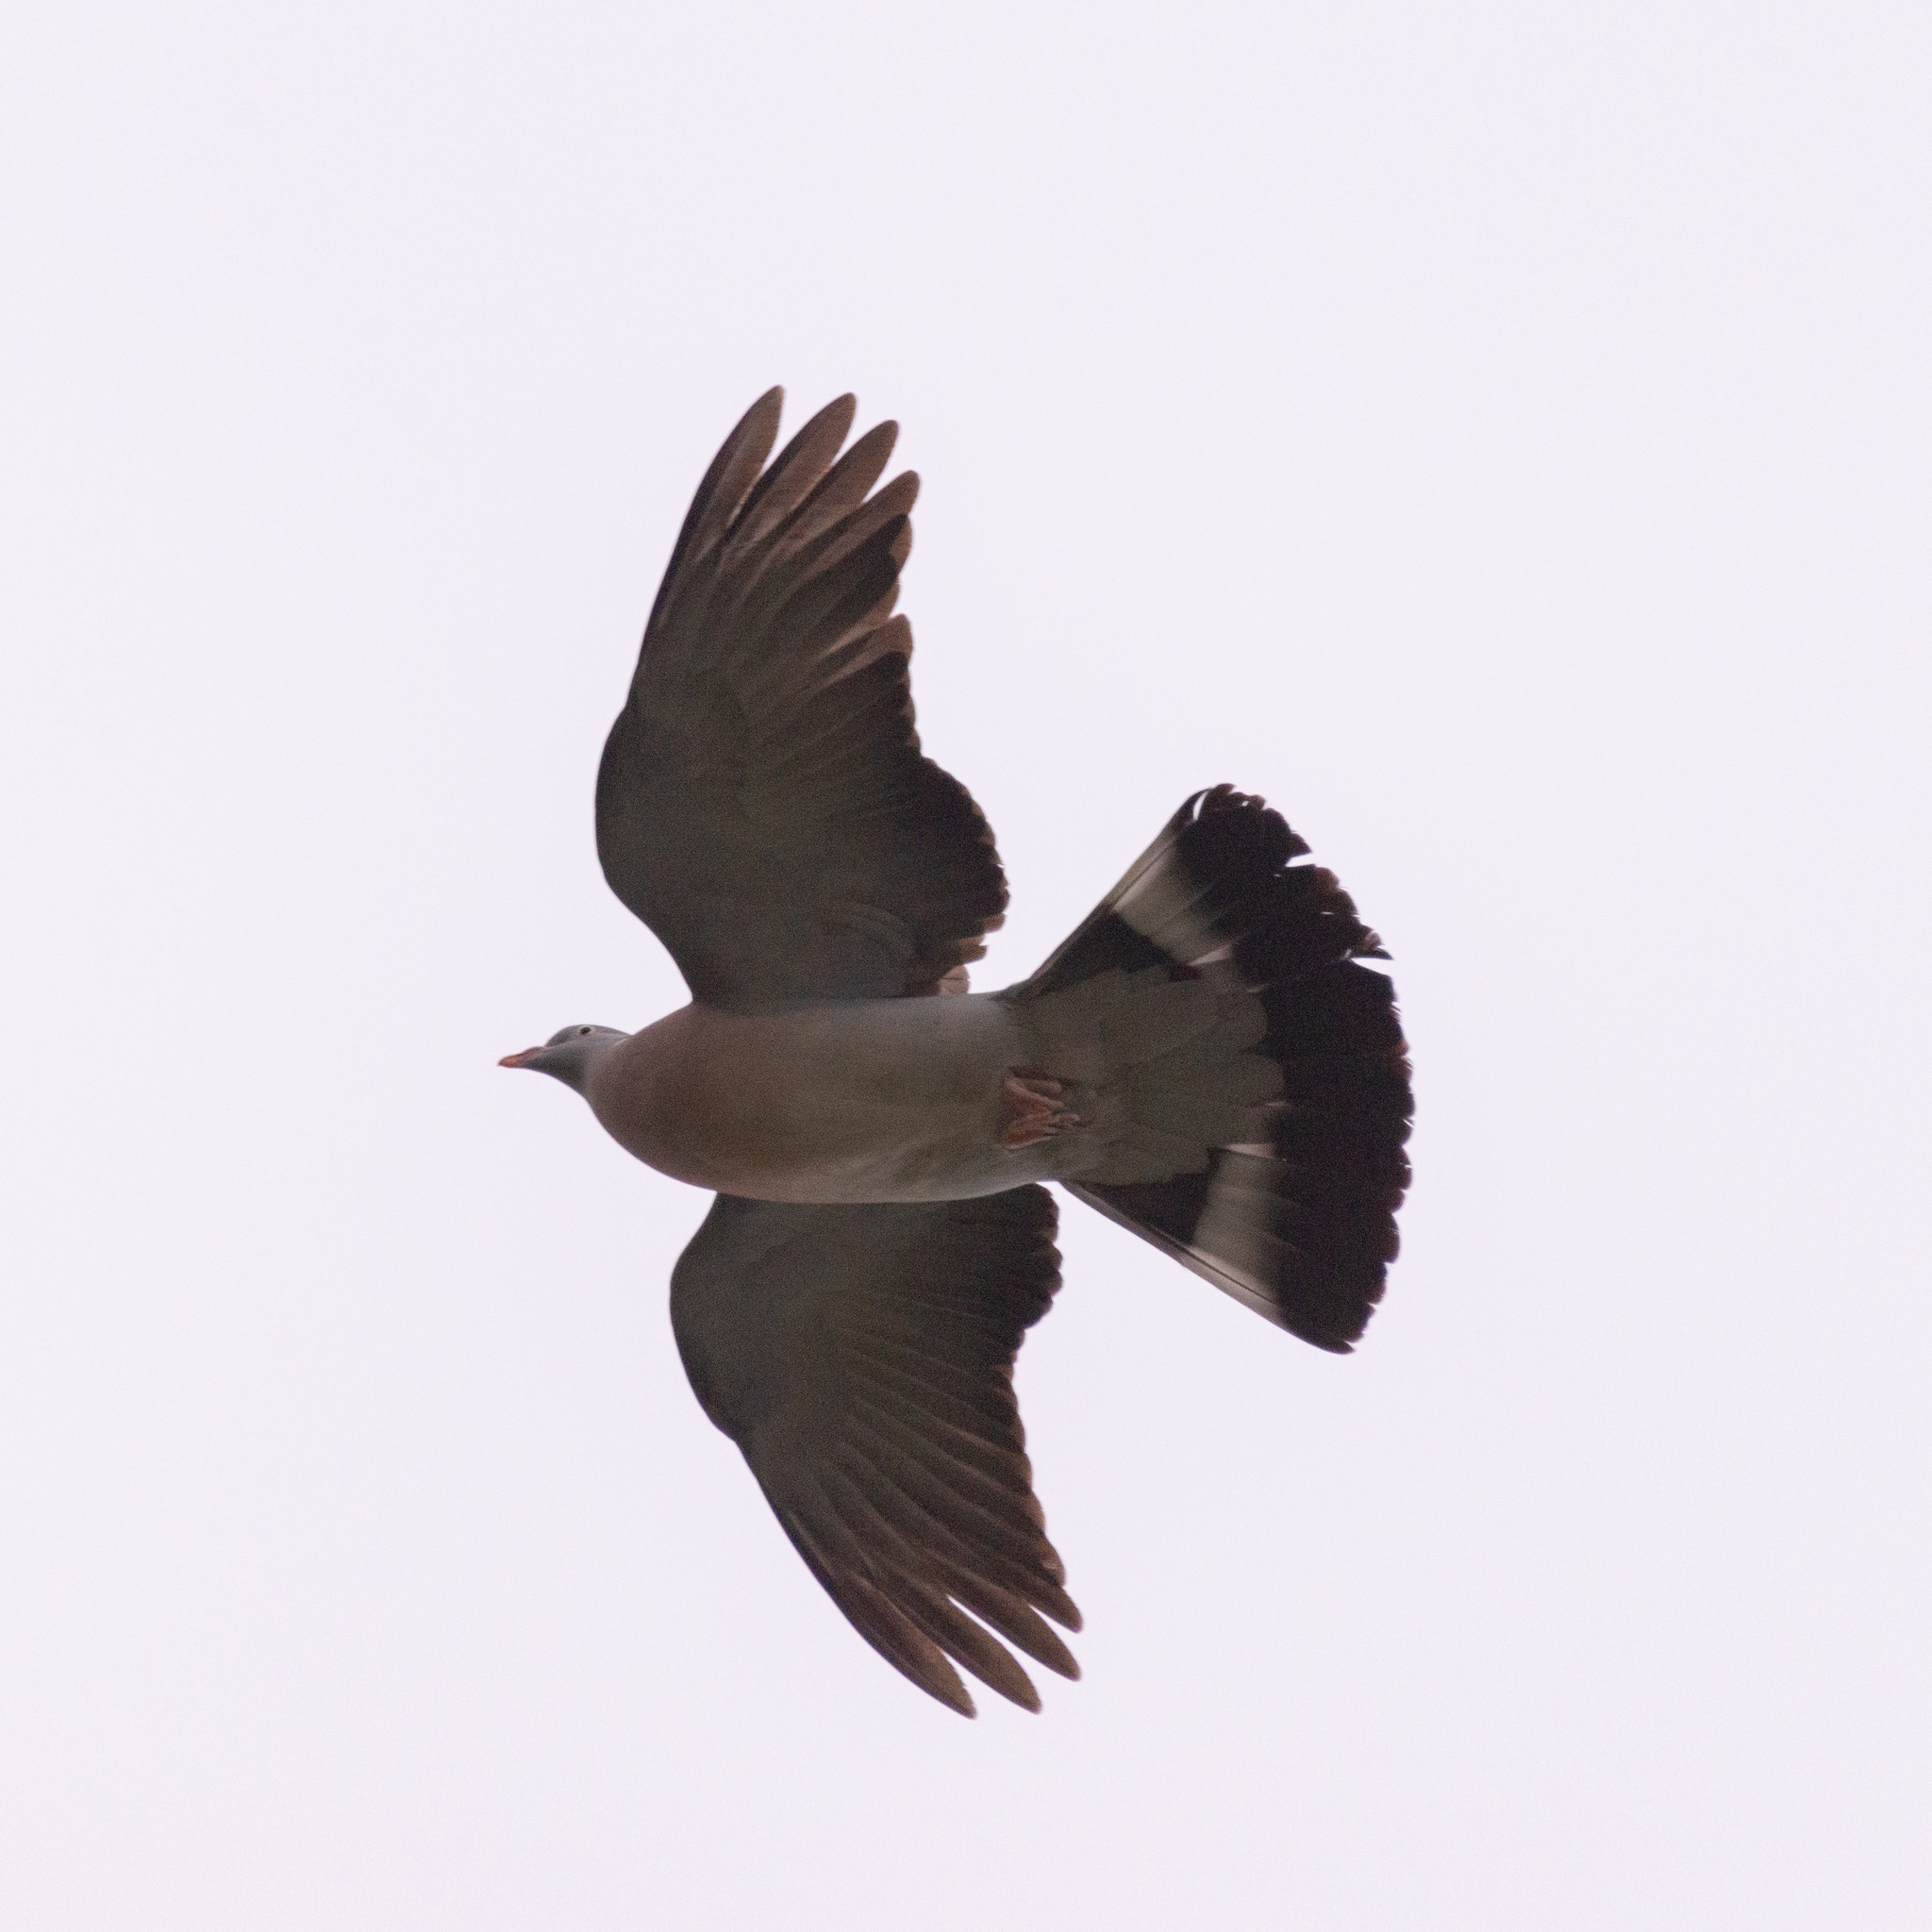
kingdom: Animalia
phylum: Chordata
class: Aves
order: Columbiformes
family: Columbidae
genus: Columba
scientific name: Columba palumbus
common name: Common wood pigeon
